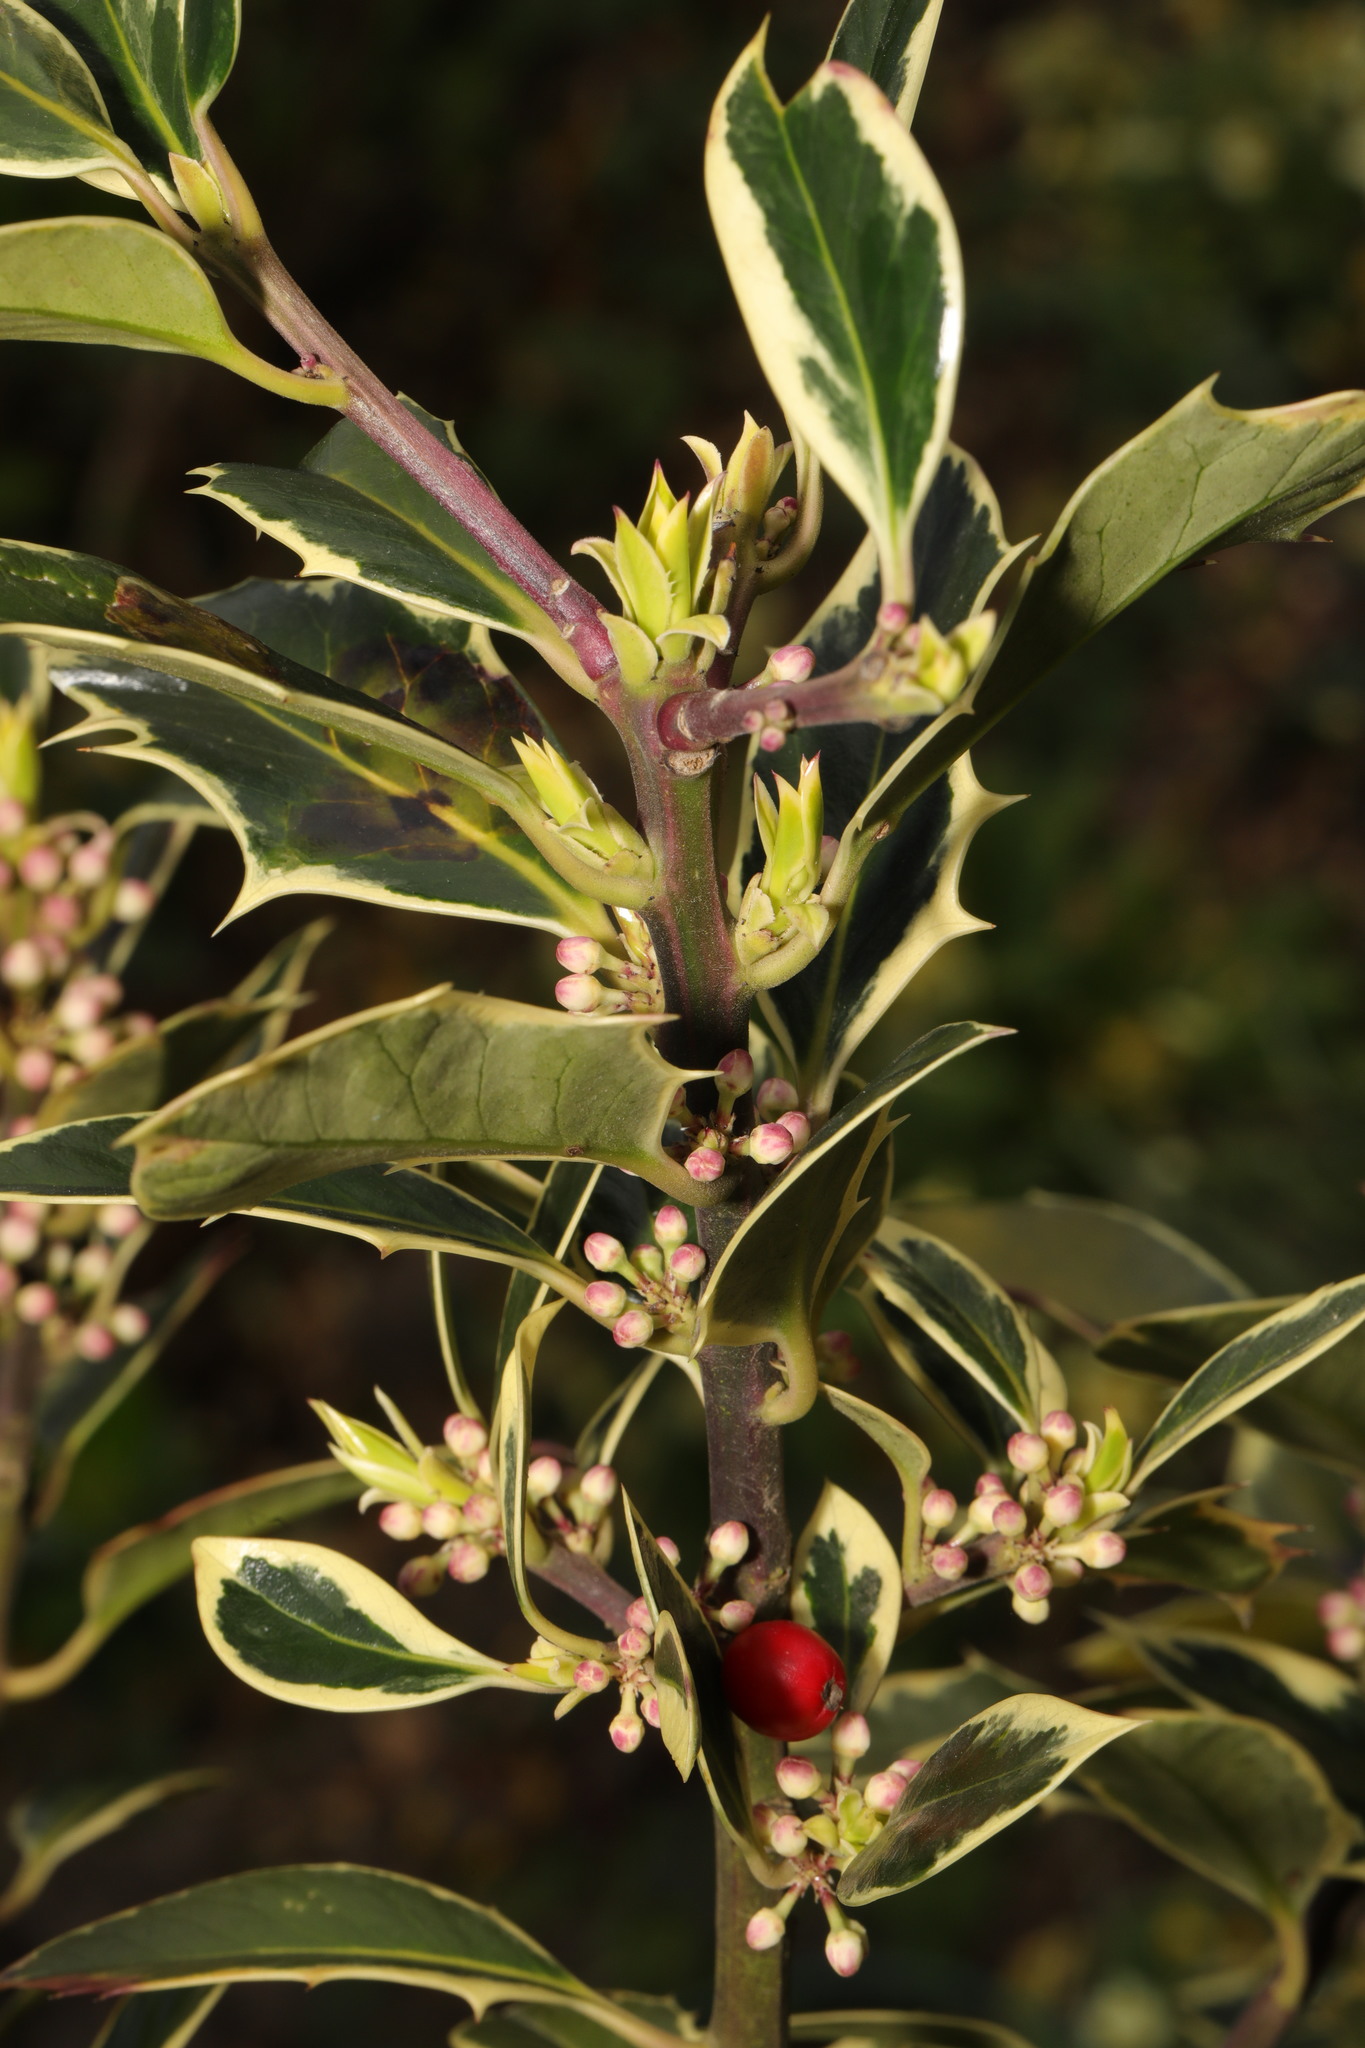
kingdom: Plantae
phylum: Tracheophyta
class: Magnoliopsida
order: Aquifoliales
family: Aquifoliaceae
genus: Ilex
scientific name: Ilex aquifolium
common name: English holly
